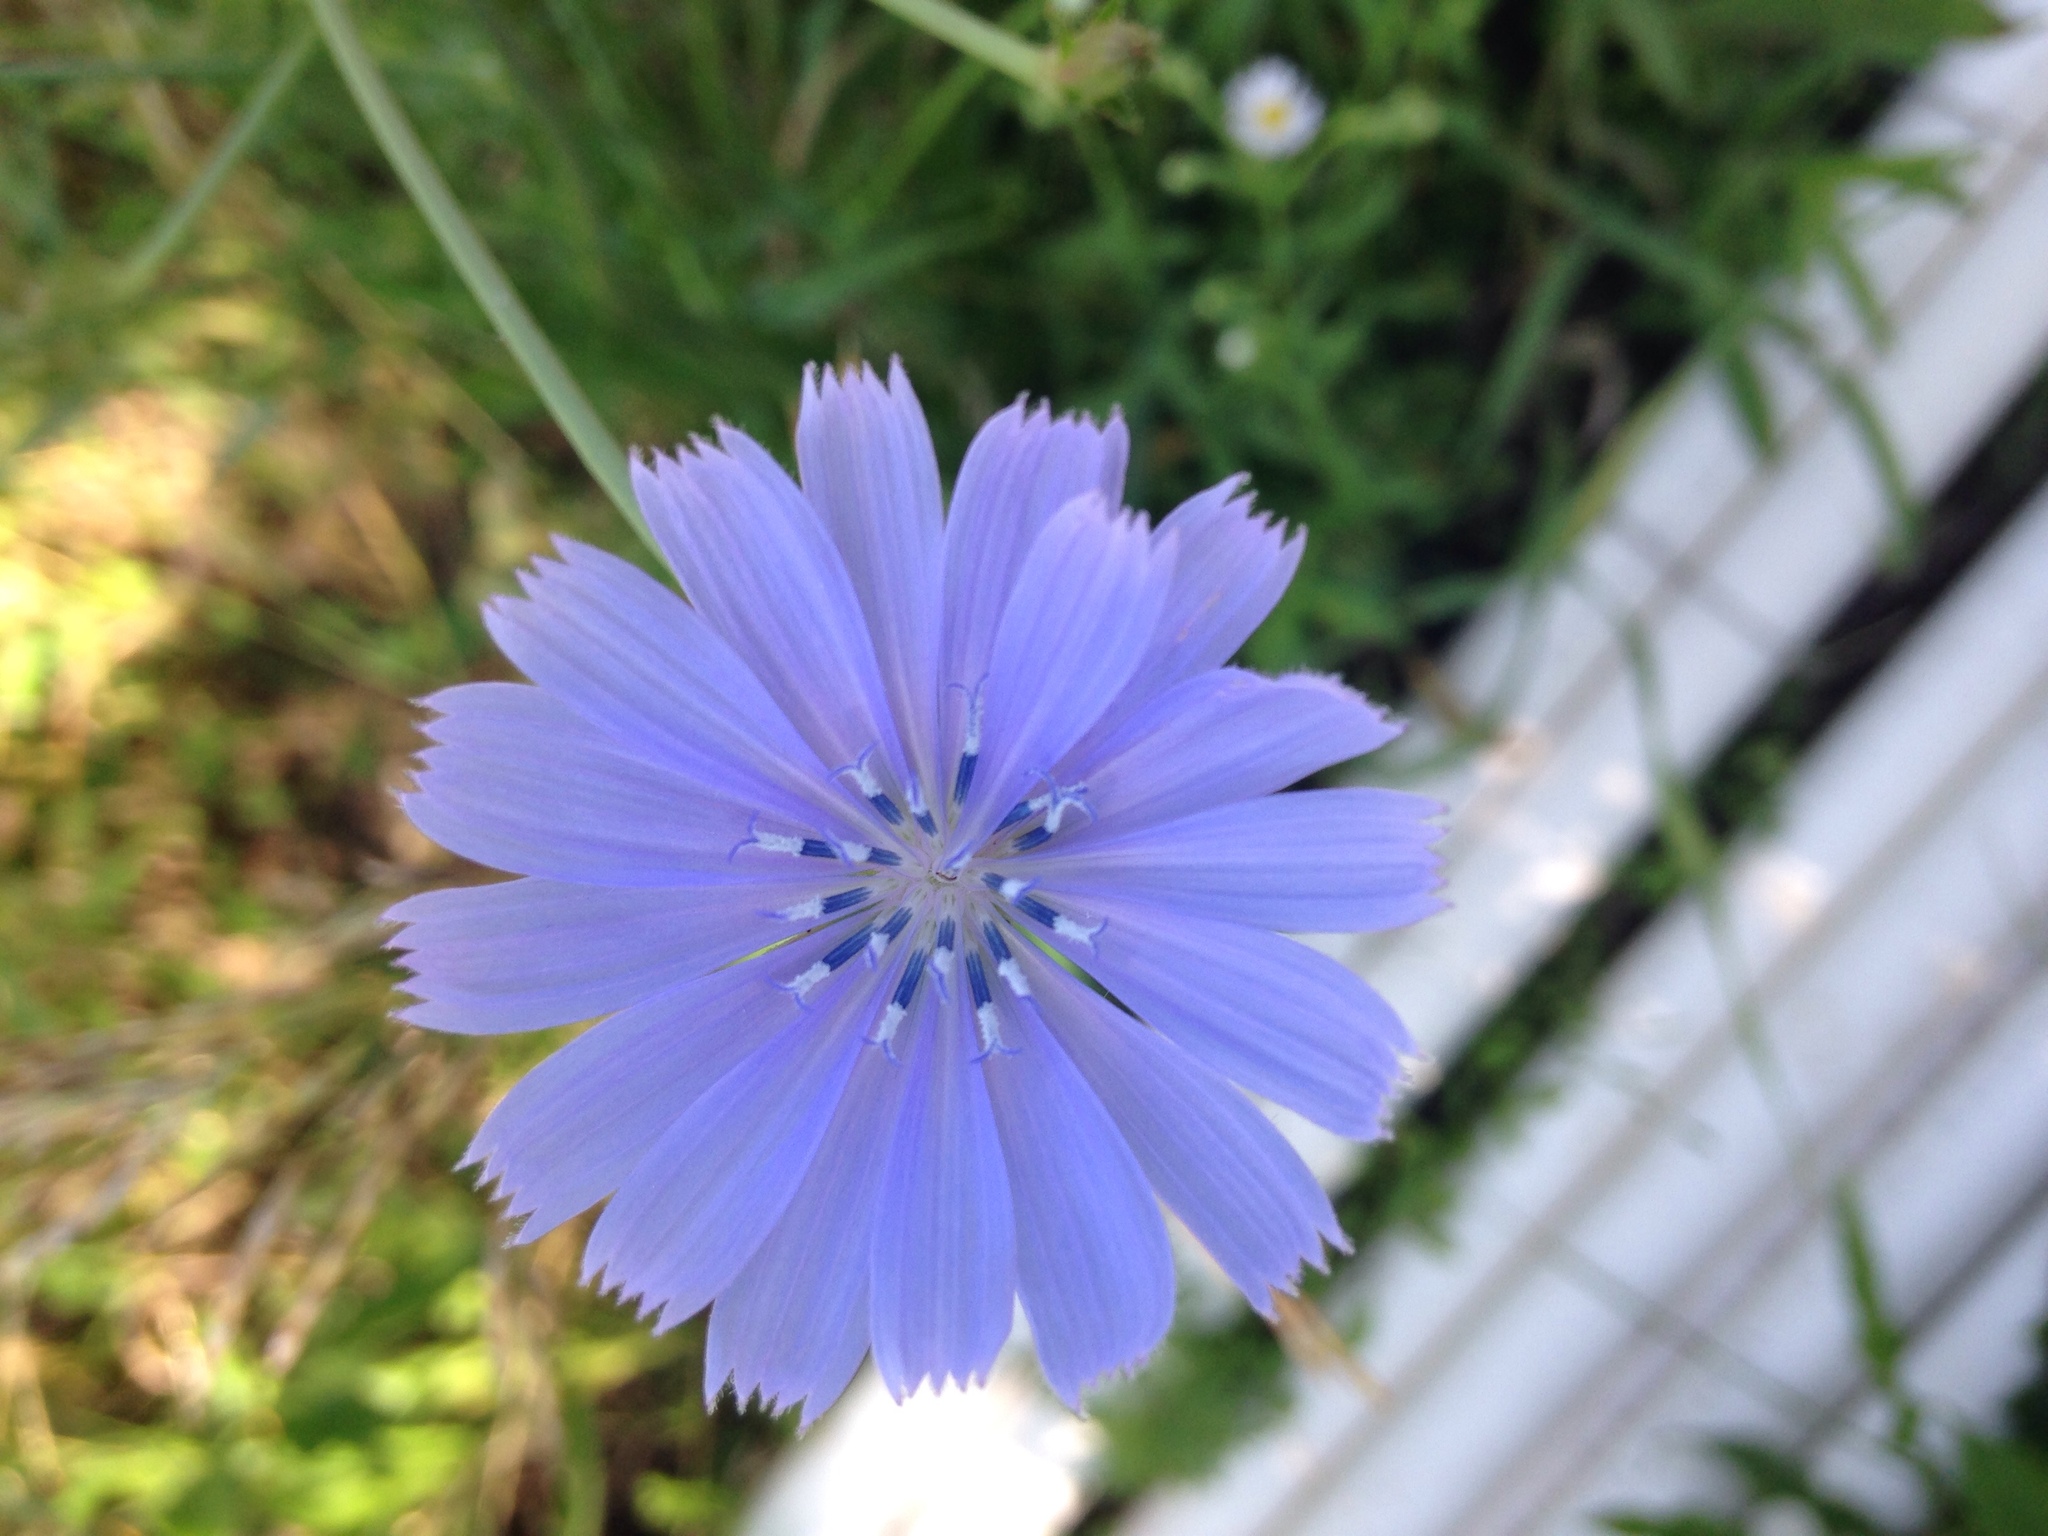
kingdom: Plantae
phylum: Tracheophyta
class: Magnoliopsida
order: Asterales
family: Asteraceae
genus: Cichorium
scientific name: Cichorium intybus
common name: Chicory
